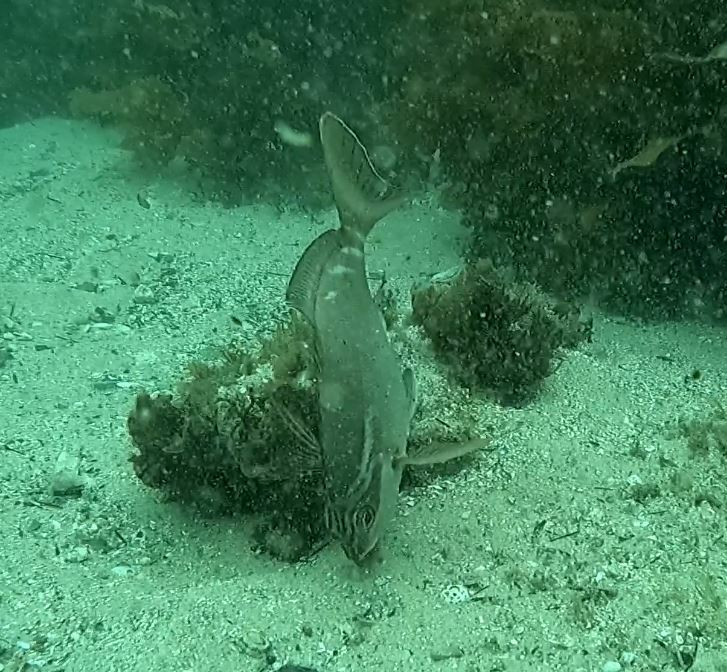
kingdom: Animalia
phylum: Chordata
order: Perciformes
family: Latridae
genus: Morwong
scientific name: Morwong fuscus
